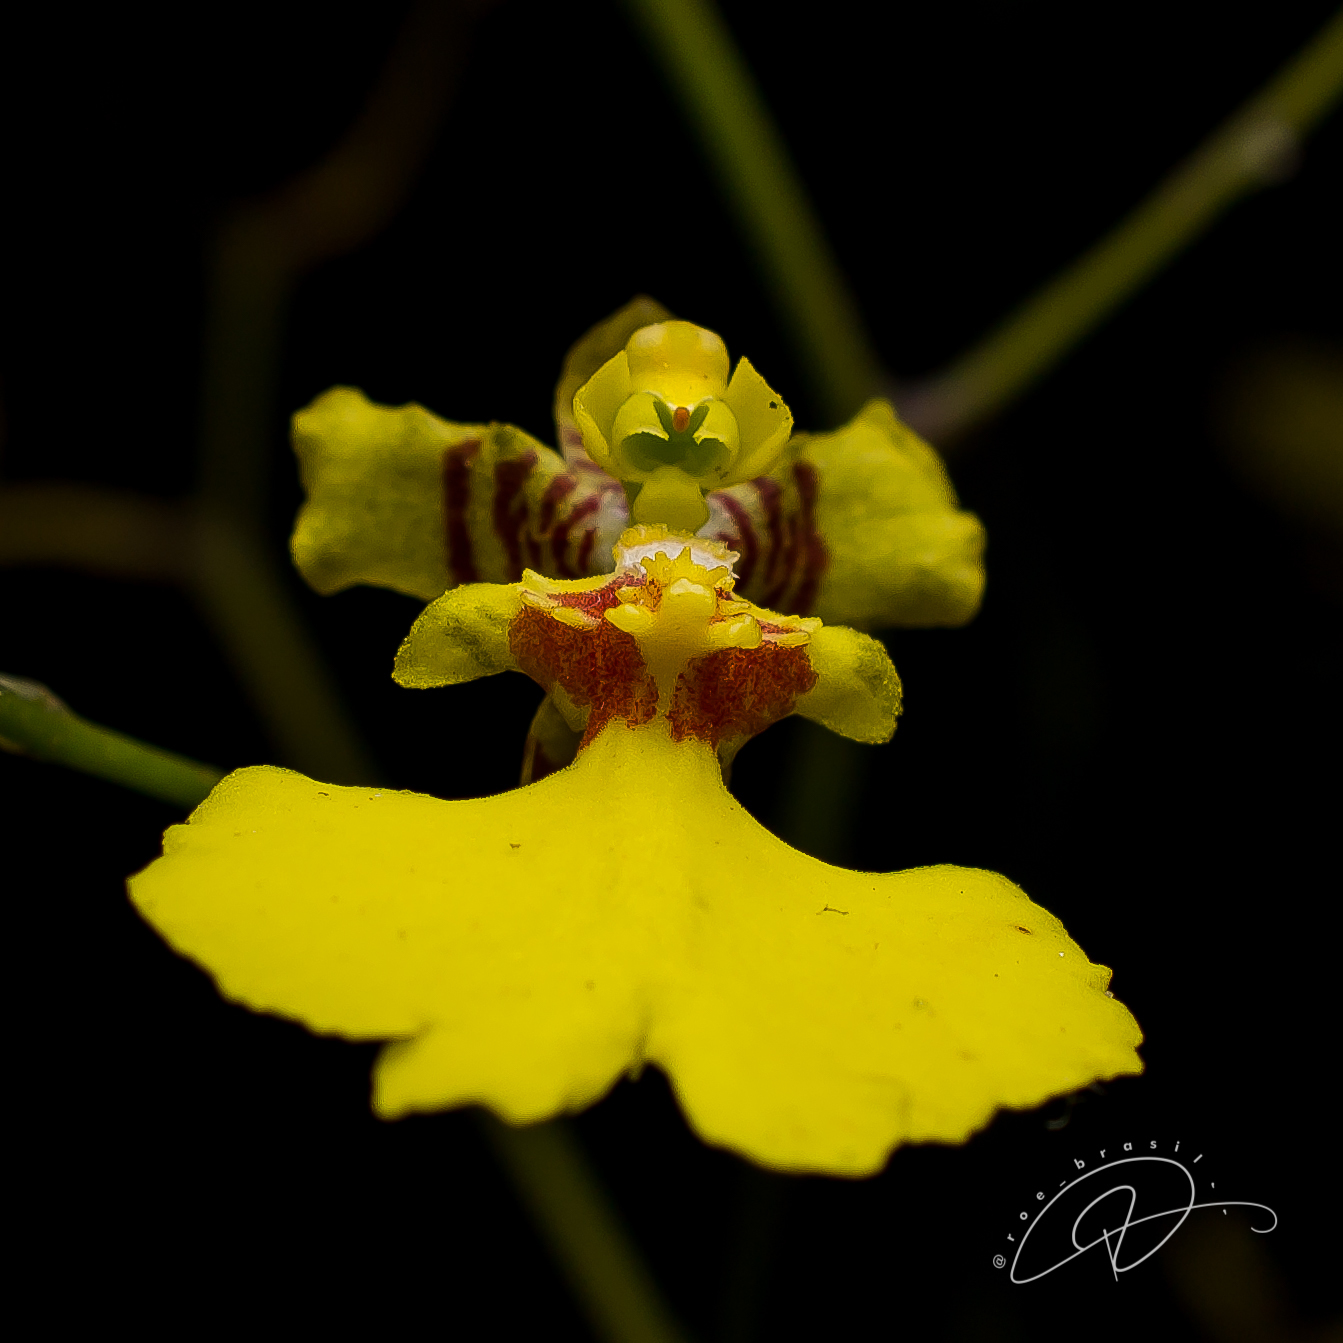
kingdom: Plantae
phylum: Tracheophyta
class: Liliopsida
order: Asparagales
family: Orchidaceae
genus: Gomesa
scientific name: Gomesa flexuosa
